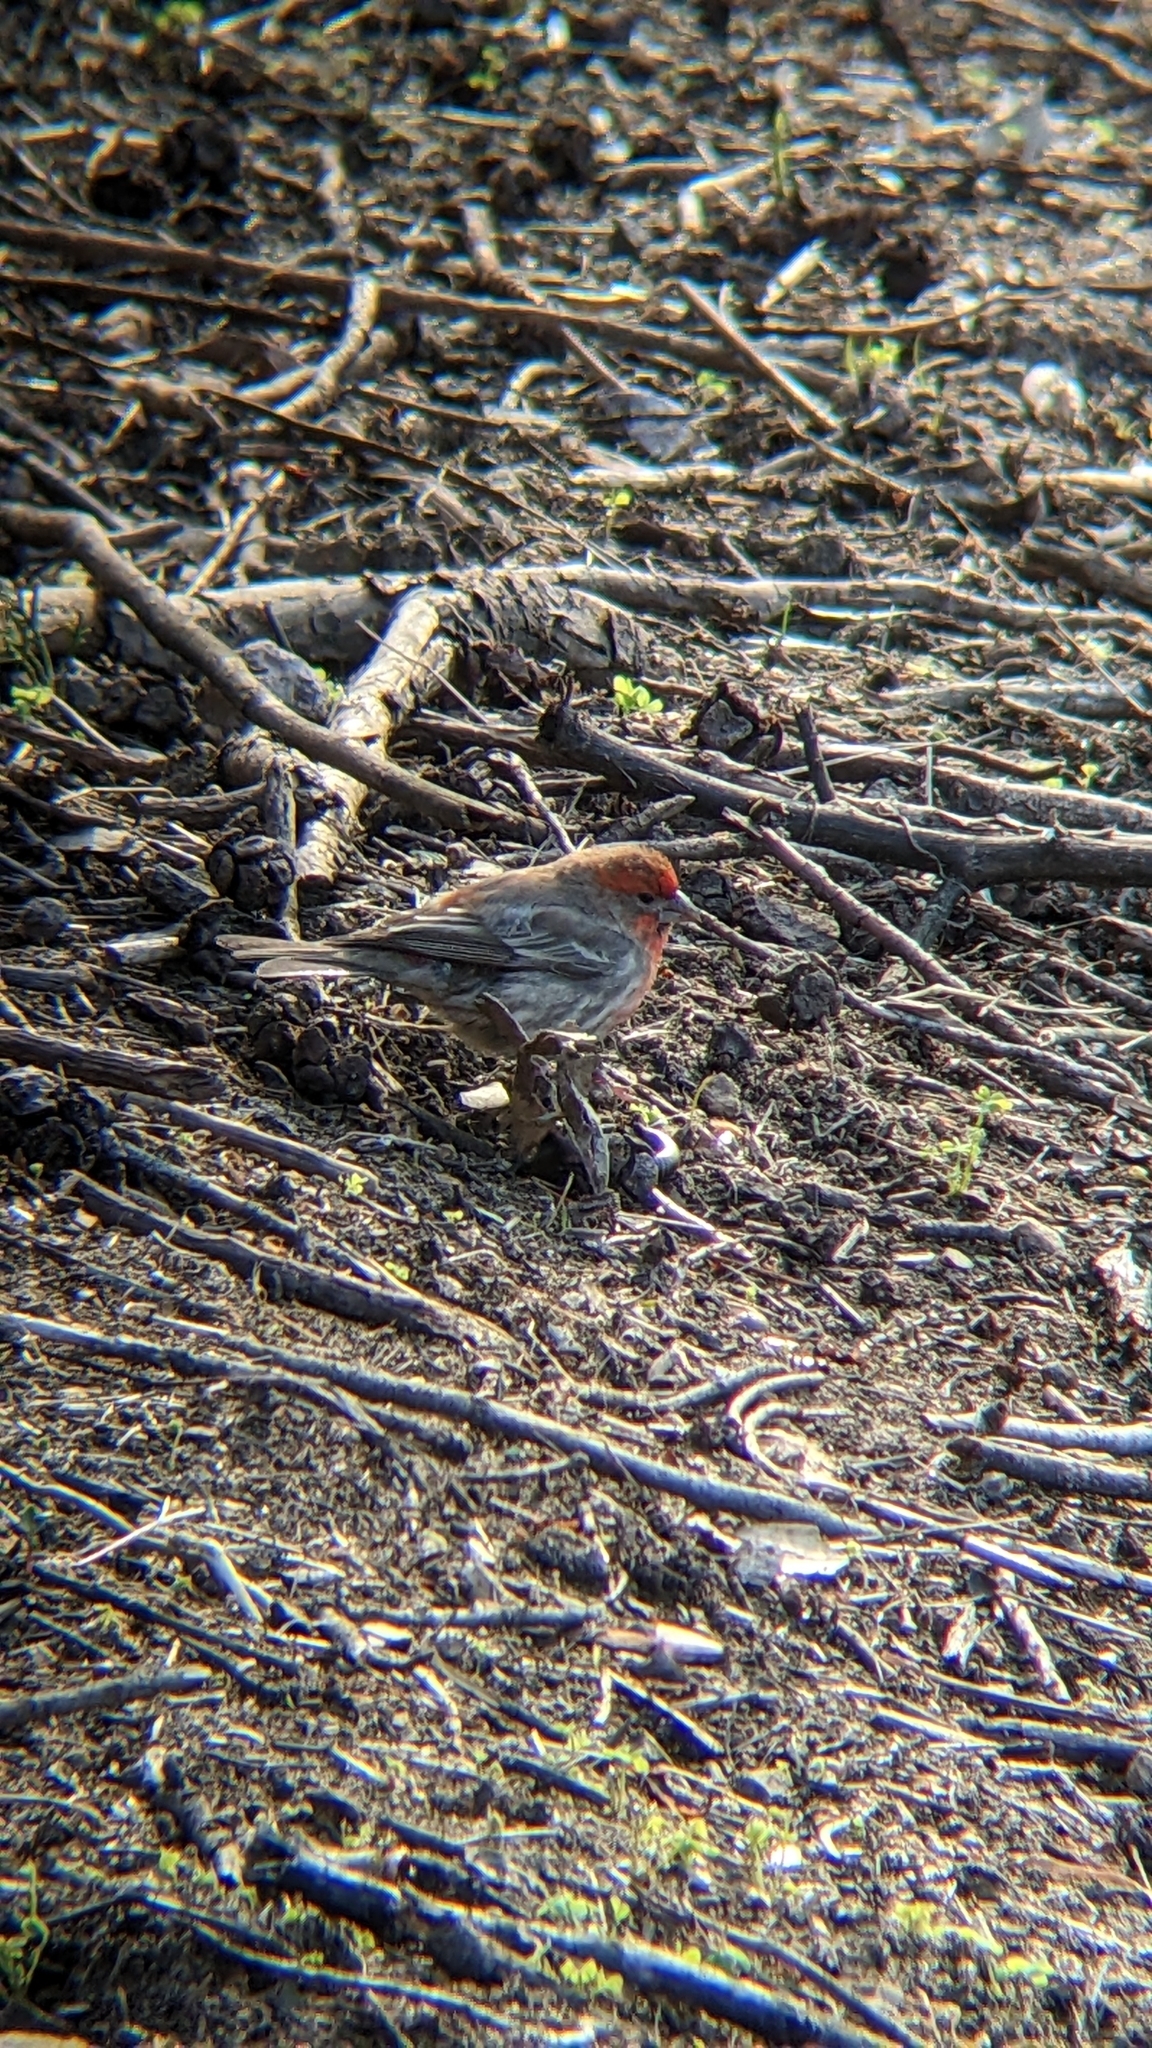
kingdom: Animalia
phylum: Chordata
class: Aves
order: Passeriformes
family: Fringillidae
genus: Haemorhous
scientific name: Haemorhous mexicanus
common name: House finch
